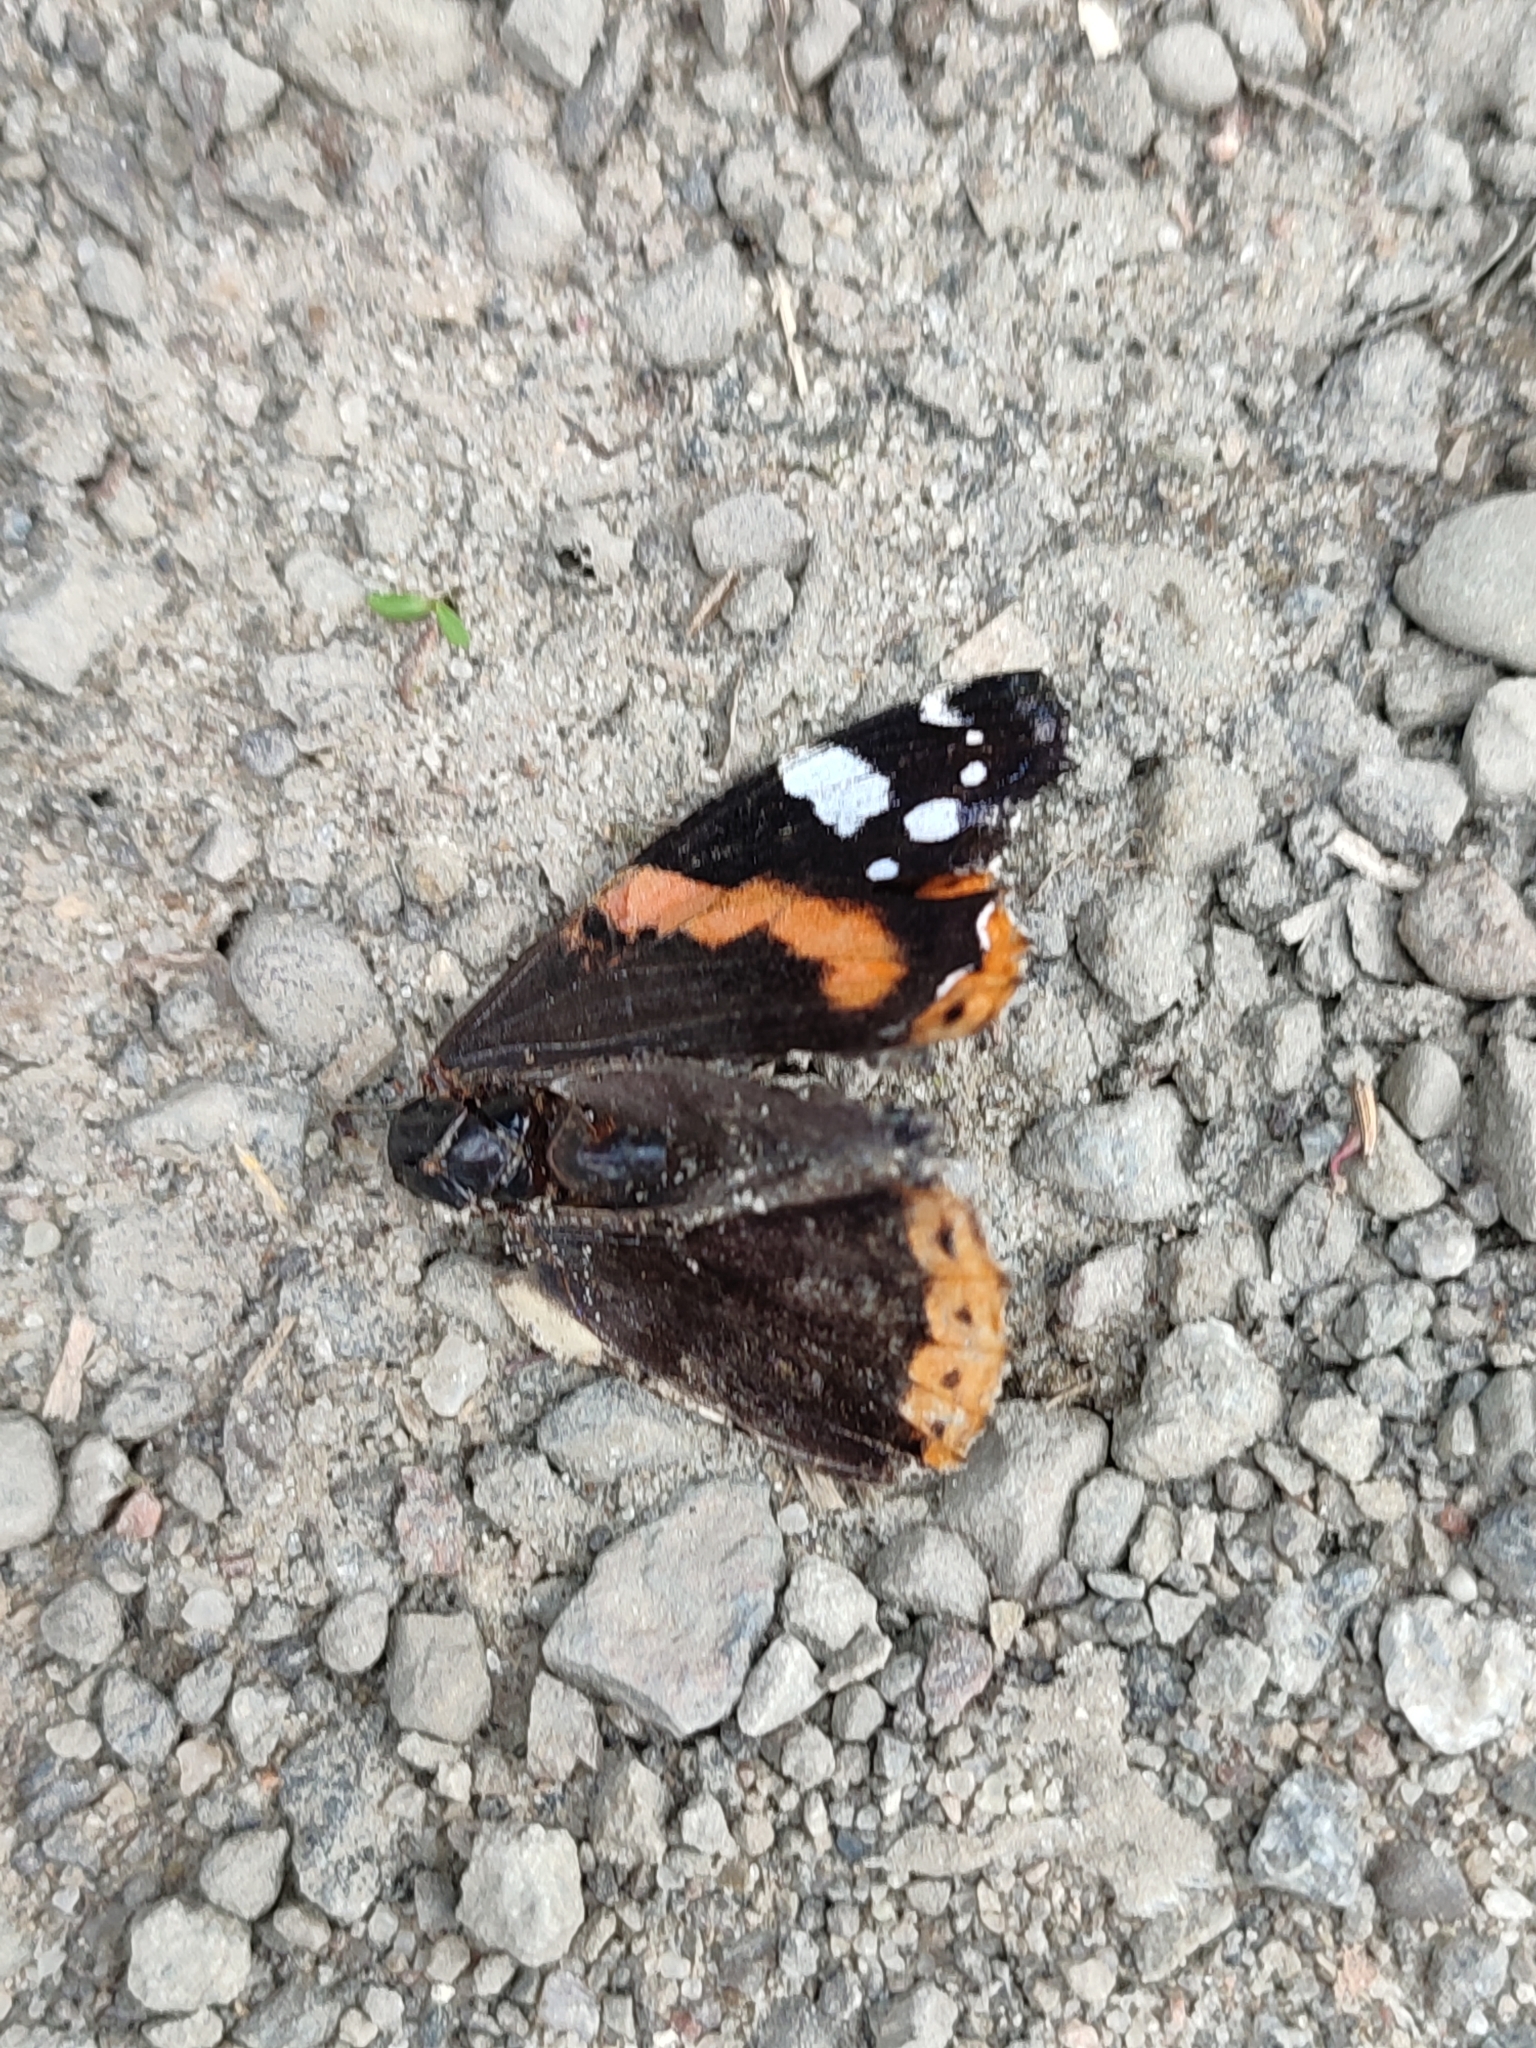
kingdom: Animalia
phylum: Arthropoda
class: Insecta
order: Lepidoptera
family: Nymphalidae
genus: Vanessa
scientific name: Vanessa atalanta
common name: Red admiral
